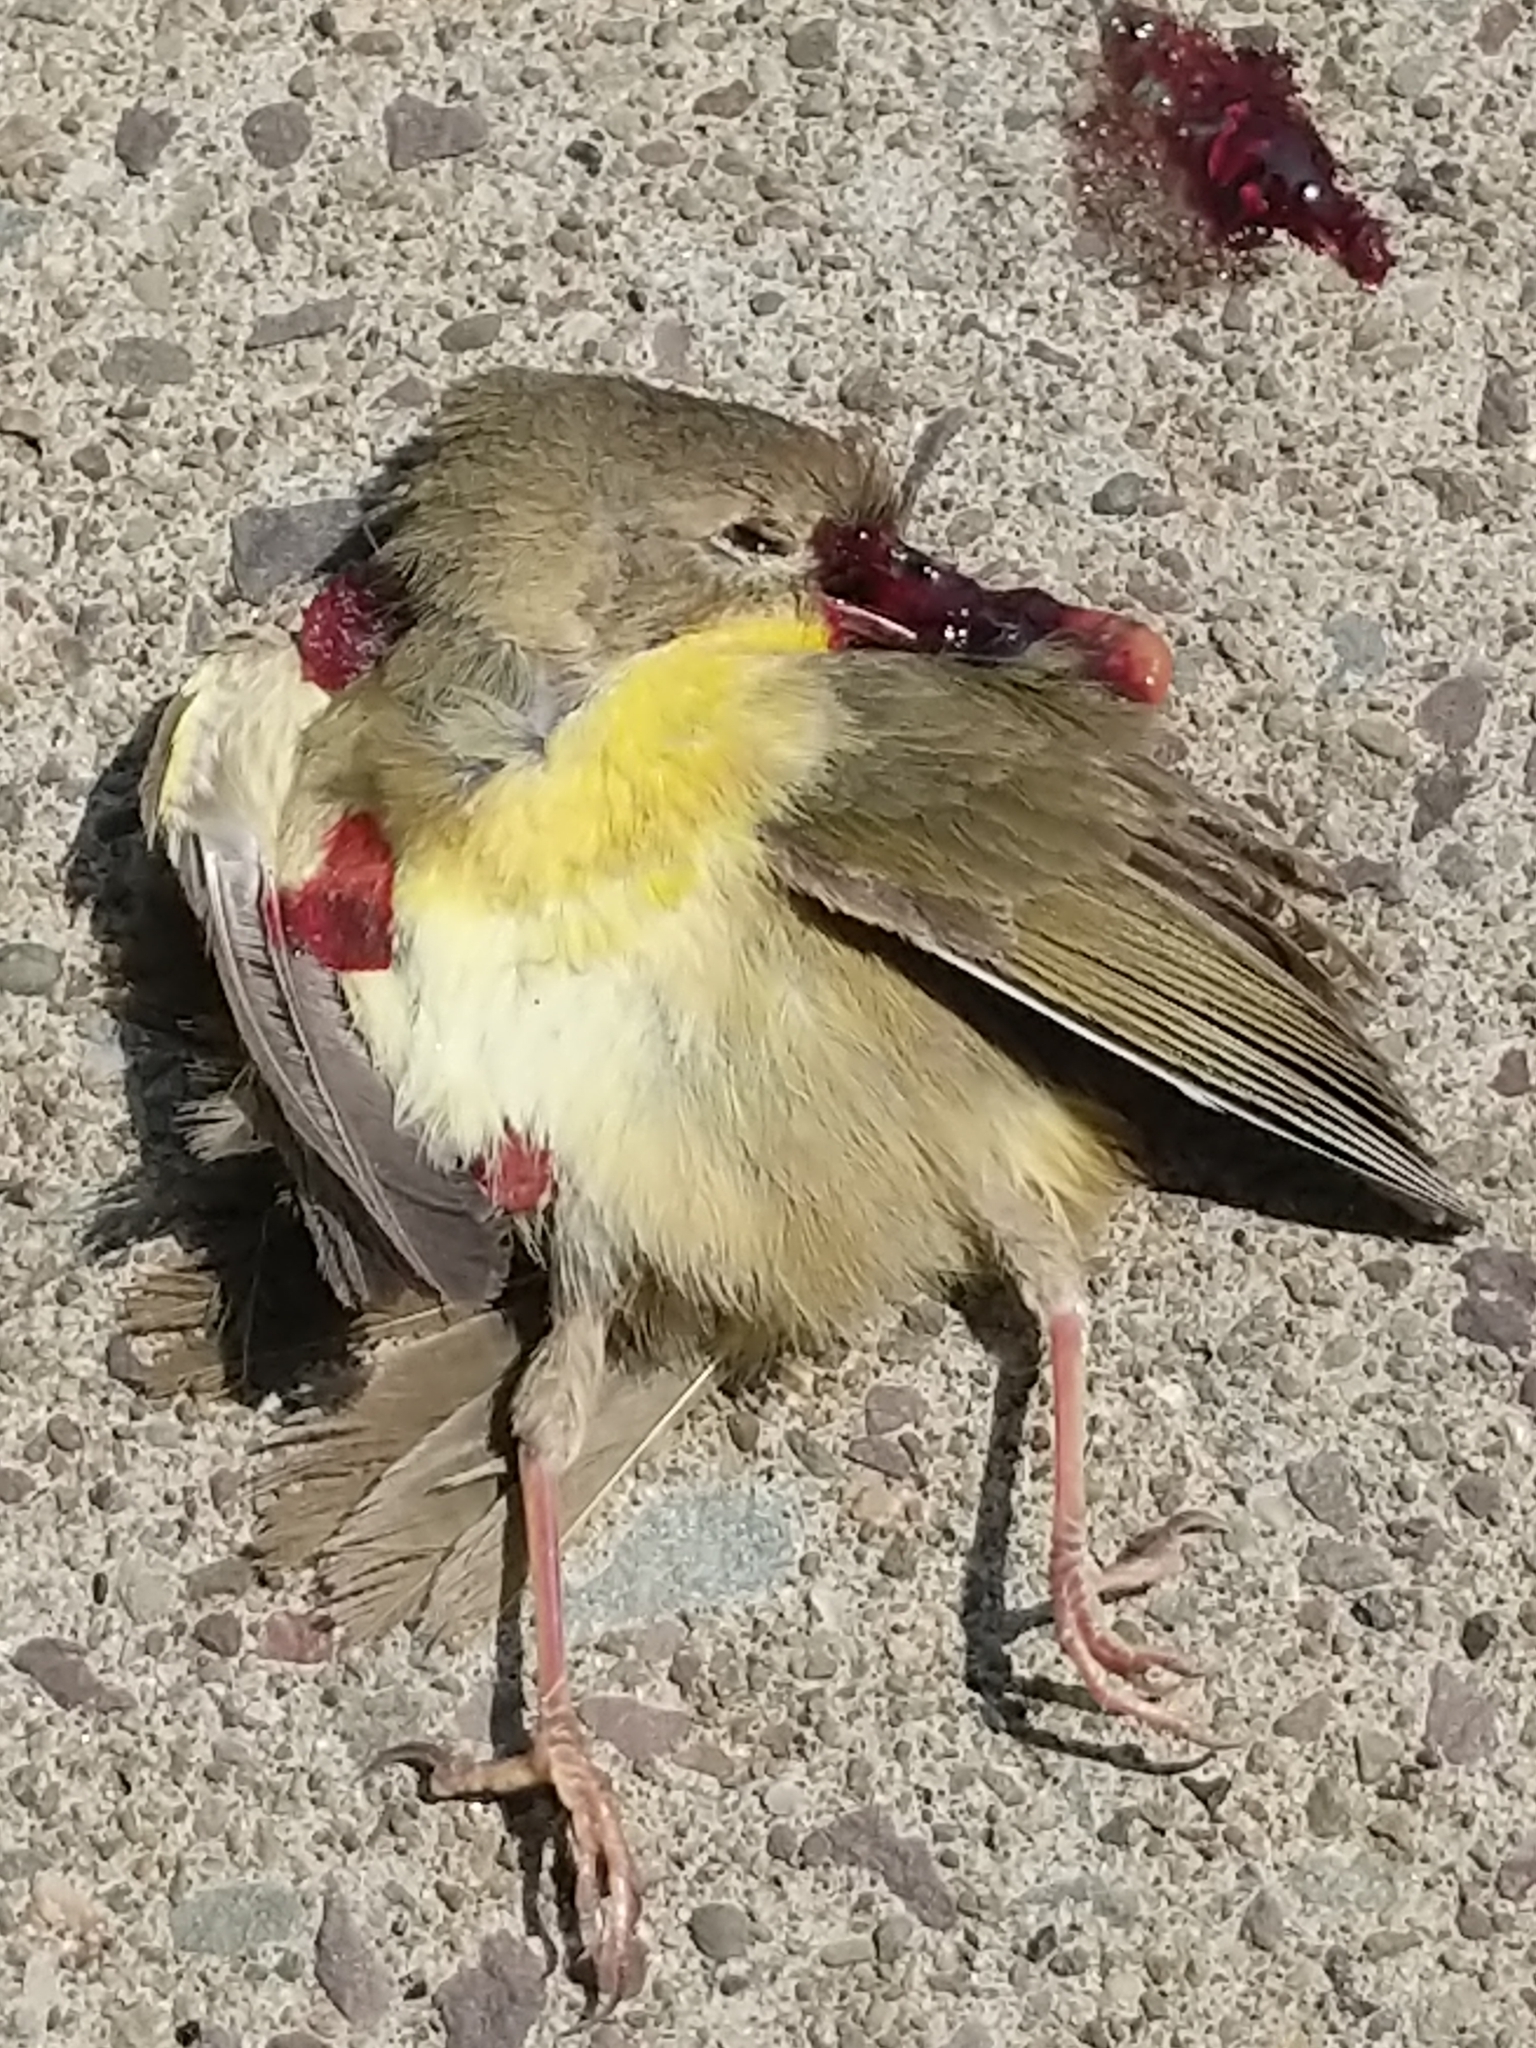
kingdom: Animalia
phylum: Chordata
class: Aves
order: Passeriformes
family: Parulidae
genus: Geothlypis
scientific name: Geothlypis trichas
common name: Common yellowthroat
